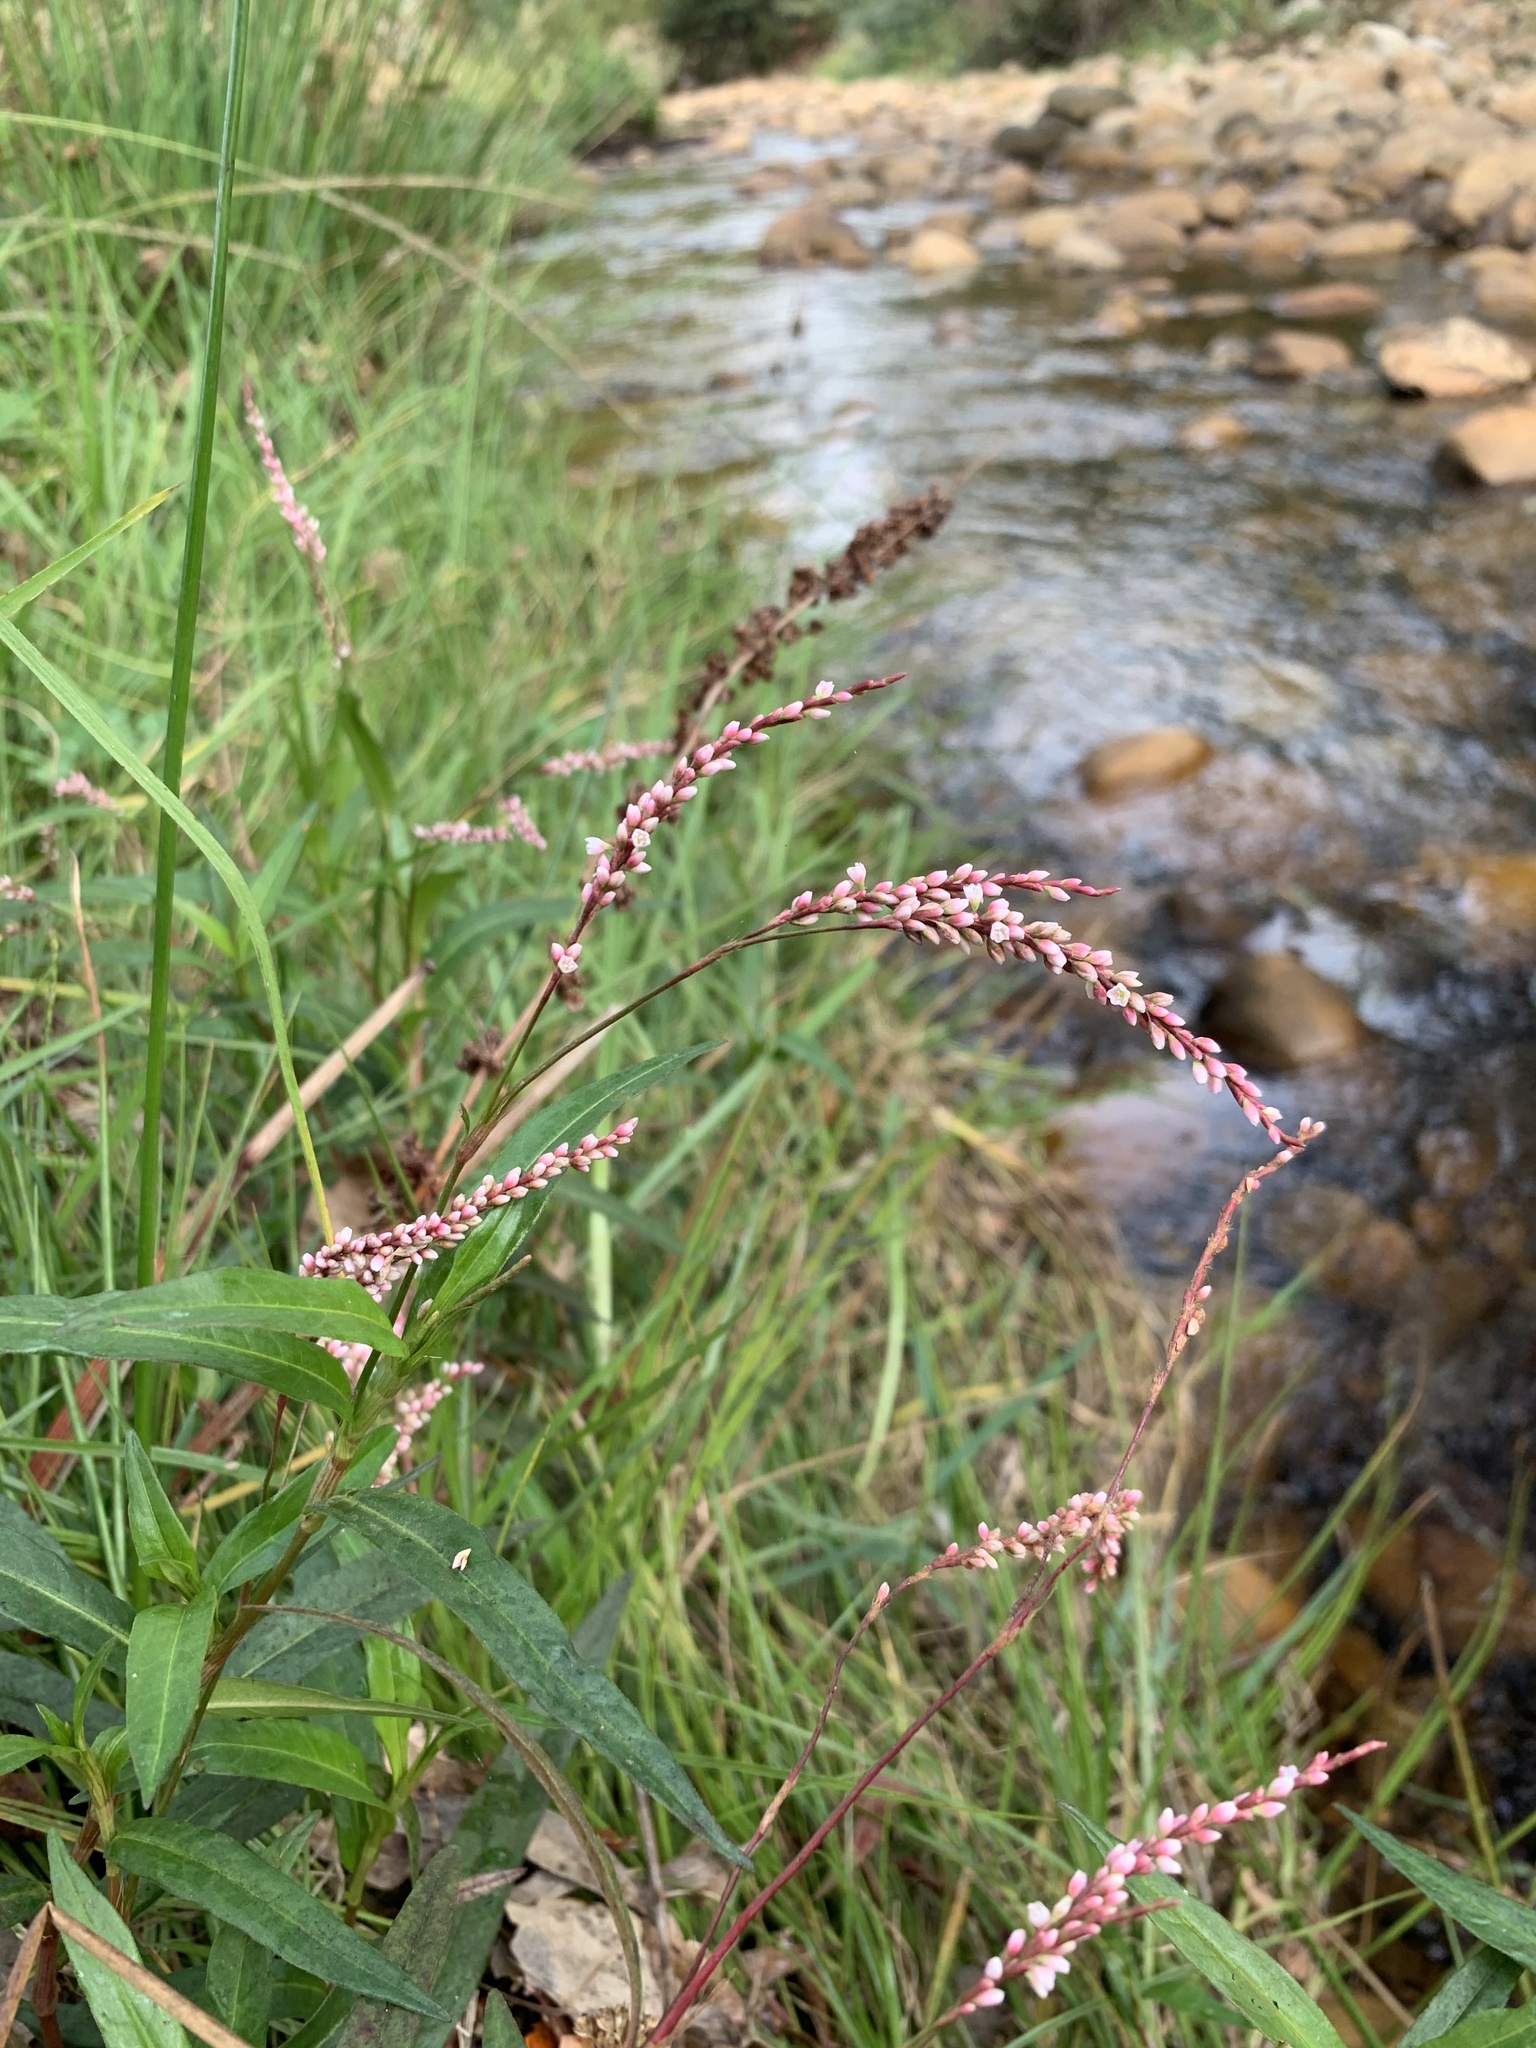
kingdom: Plantae
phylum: Tracheophyta
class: Magnoliopsida
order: Caryophyllales
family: Polygonaceae
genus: Persicaria
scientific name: Persicaria decipiens
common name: Willow-weed
